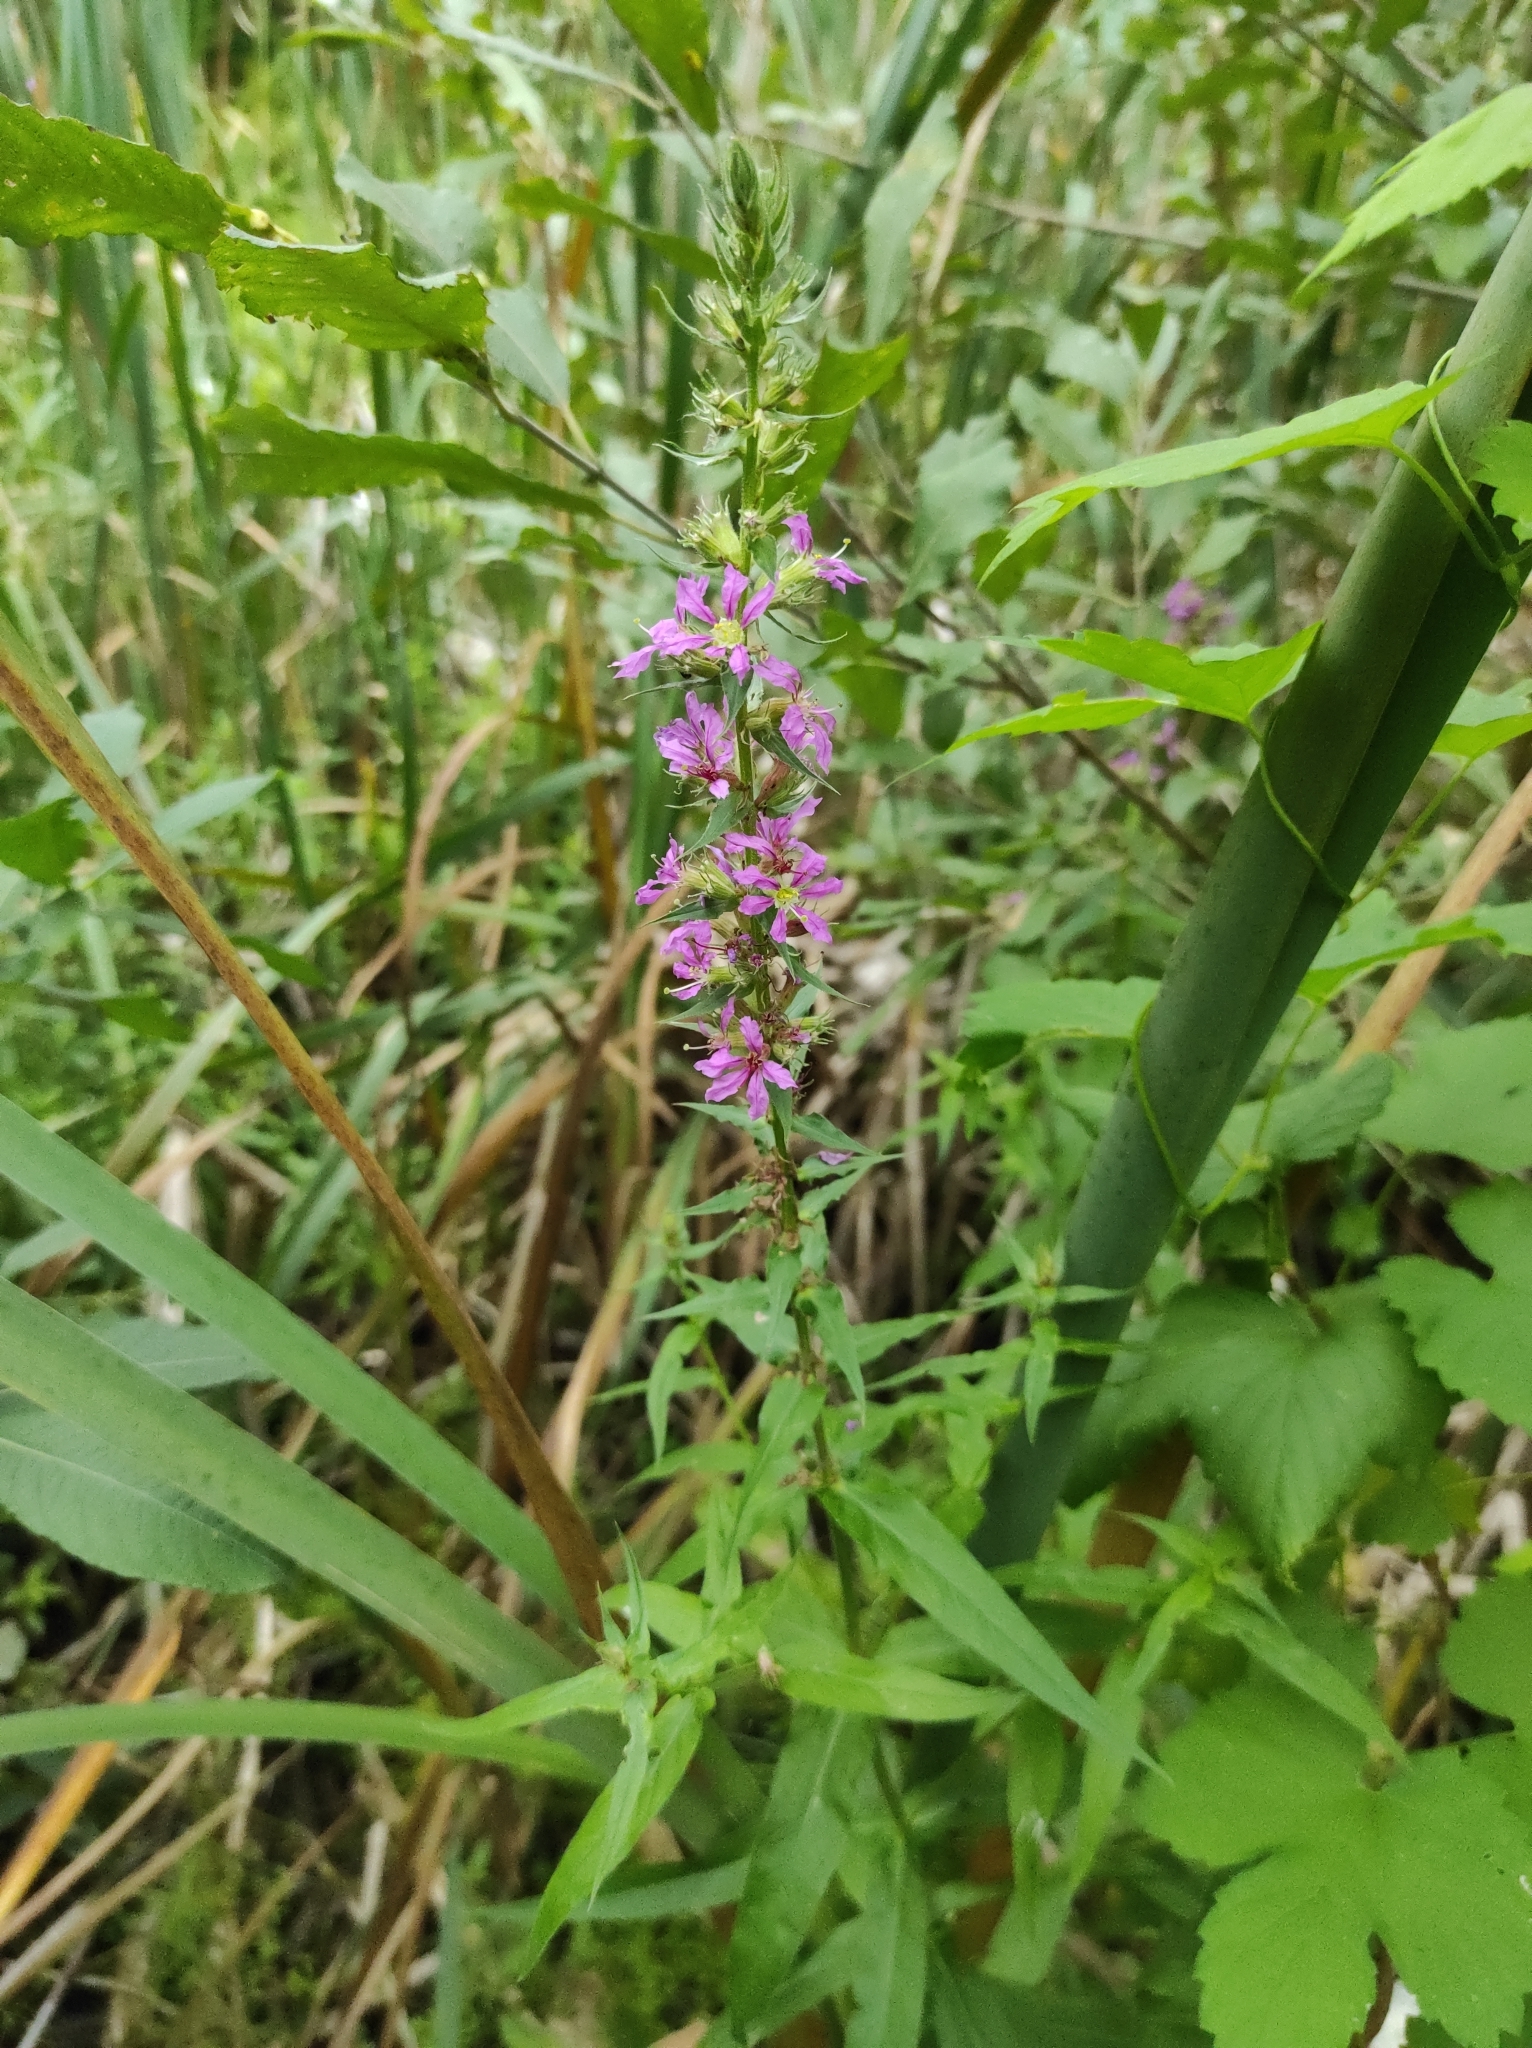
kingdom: Plantae
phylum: Tracheophyta
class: Magnoliopsida
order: Myrtales
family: Lythraceae
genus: Lythrum
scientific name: Lythrum salicaria
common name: Purple loosestrife
